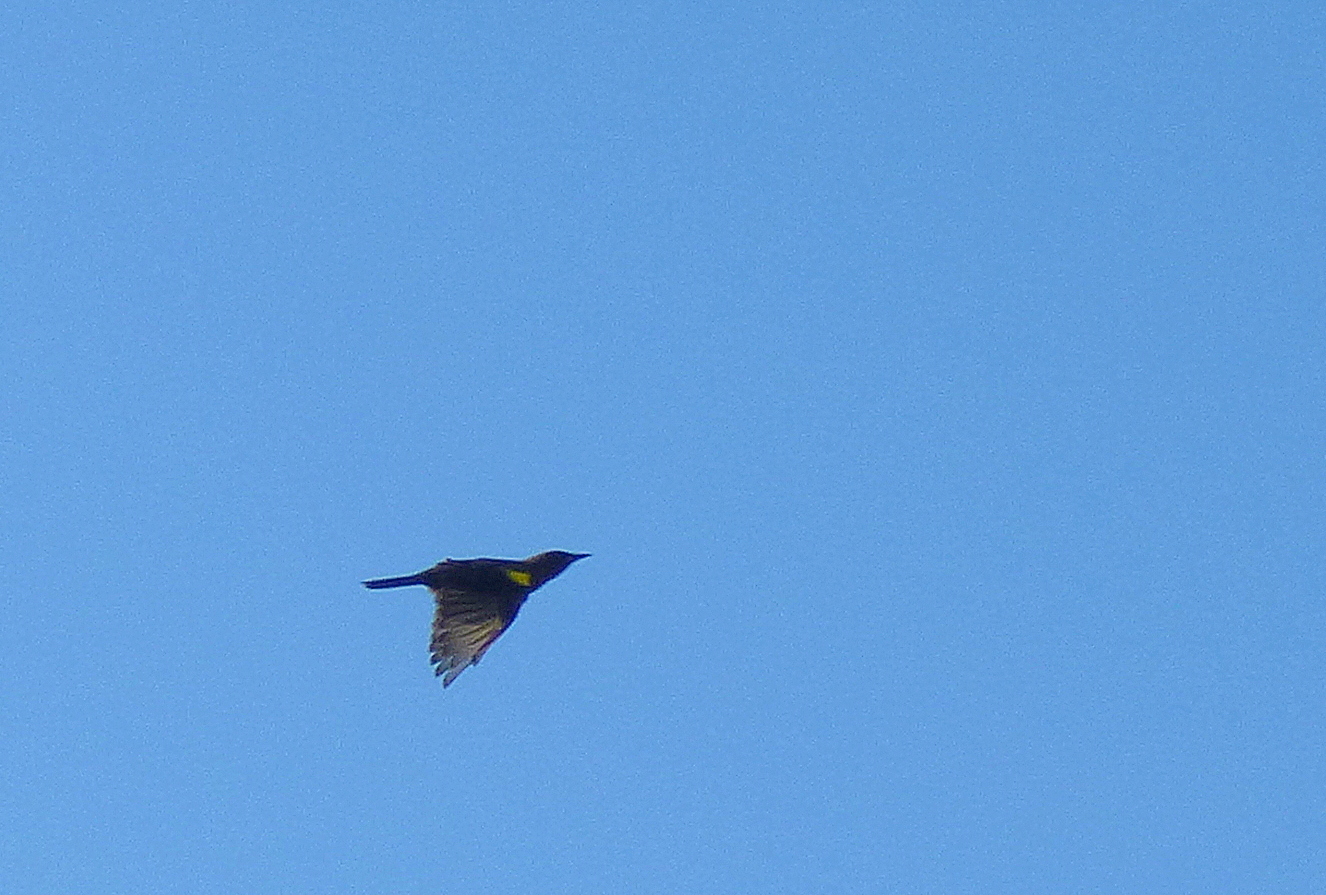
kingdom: Animalia
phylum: Chordata
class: Aves
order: Passeriformes
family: Icteridae
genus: Pseudoleistes
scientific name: Pseudoleistes virescens
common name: Brown-and-yellow marshbird
